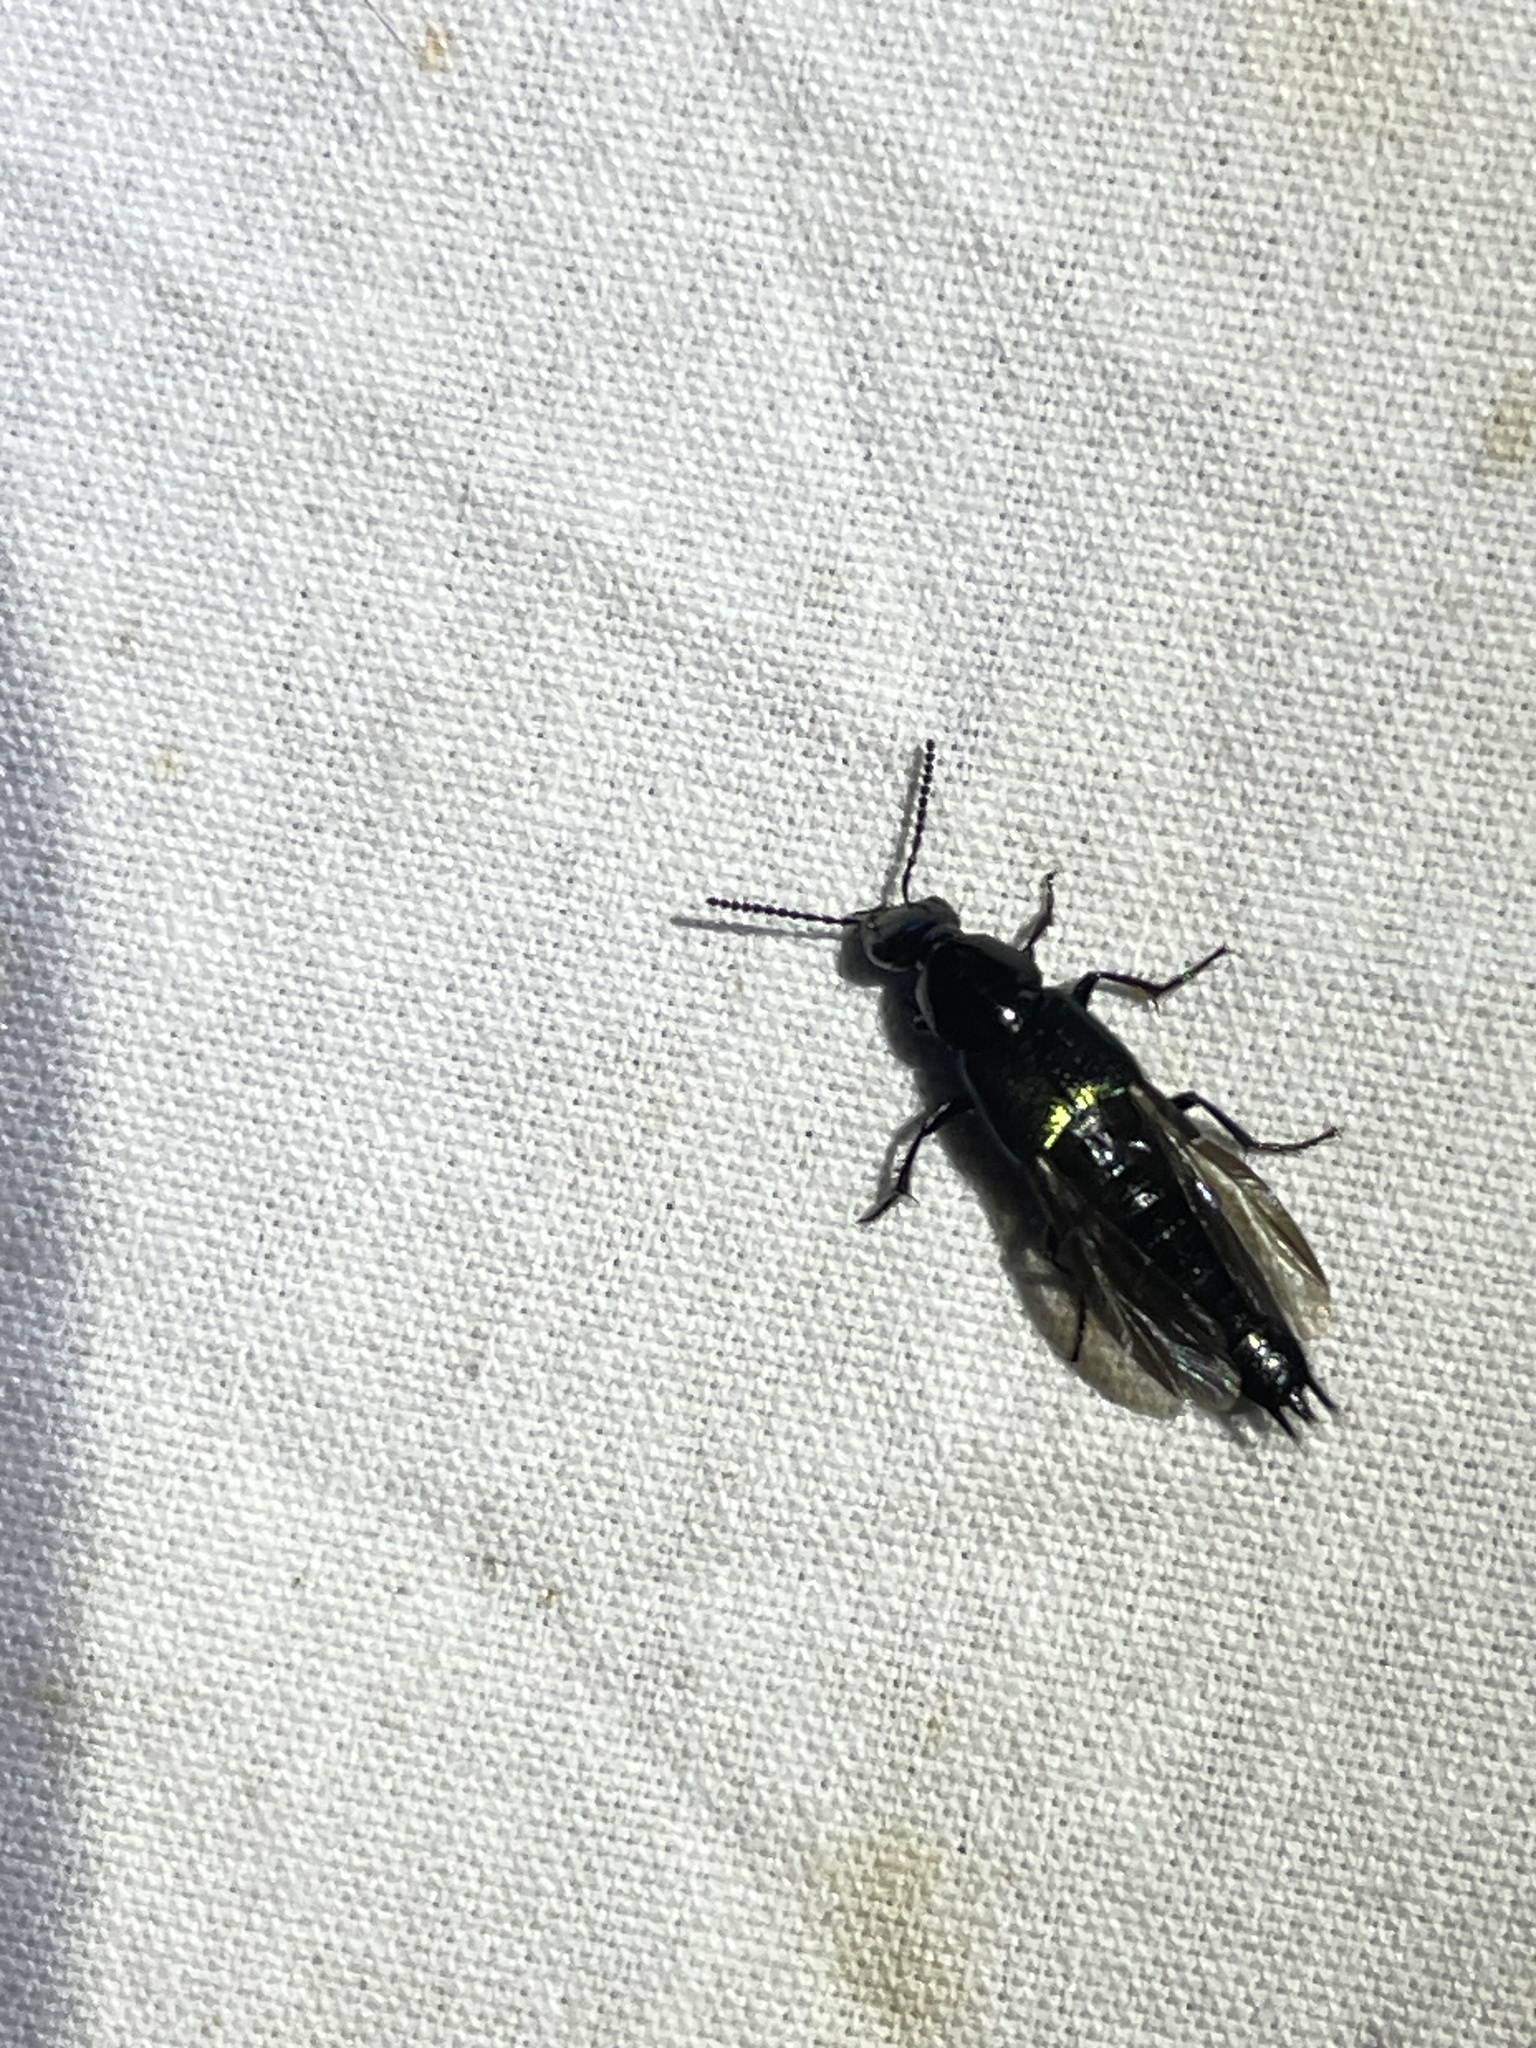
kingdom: Animalia
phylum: Arthropoda
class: Insecta
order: Coleoptera
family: Staphylinidae
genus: Philonthus
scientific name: Philonthus caeruleipennis
